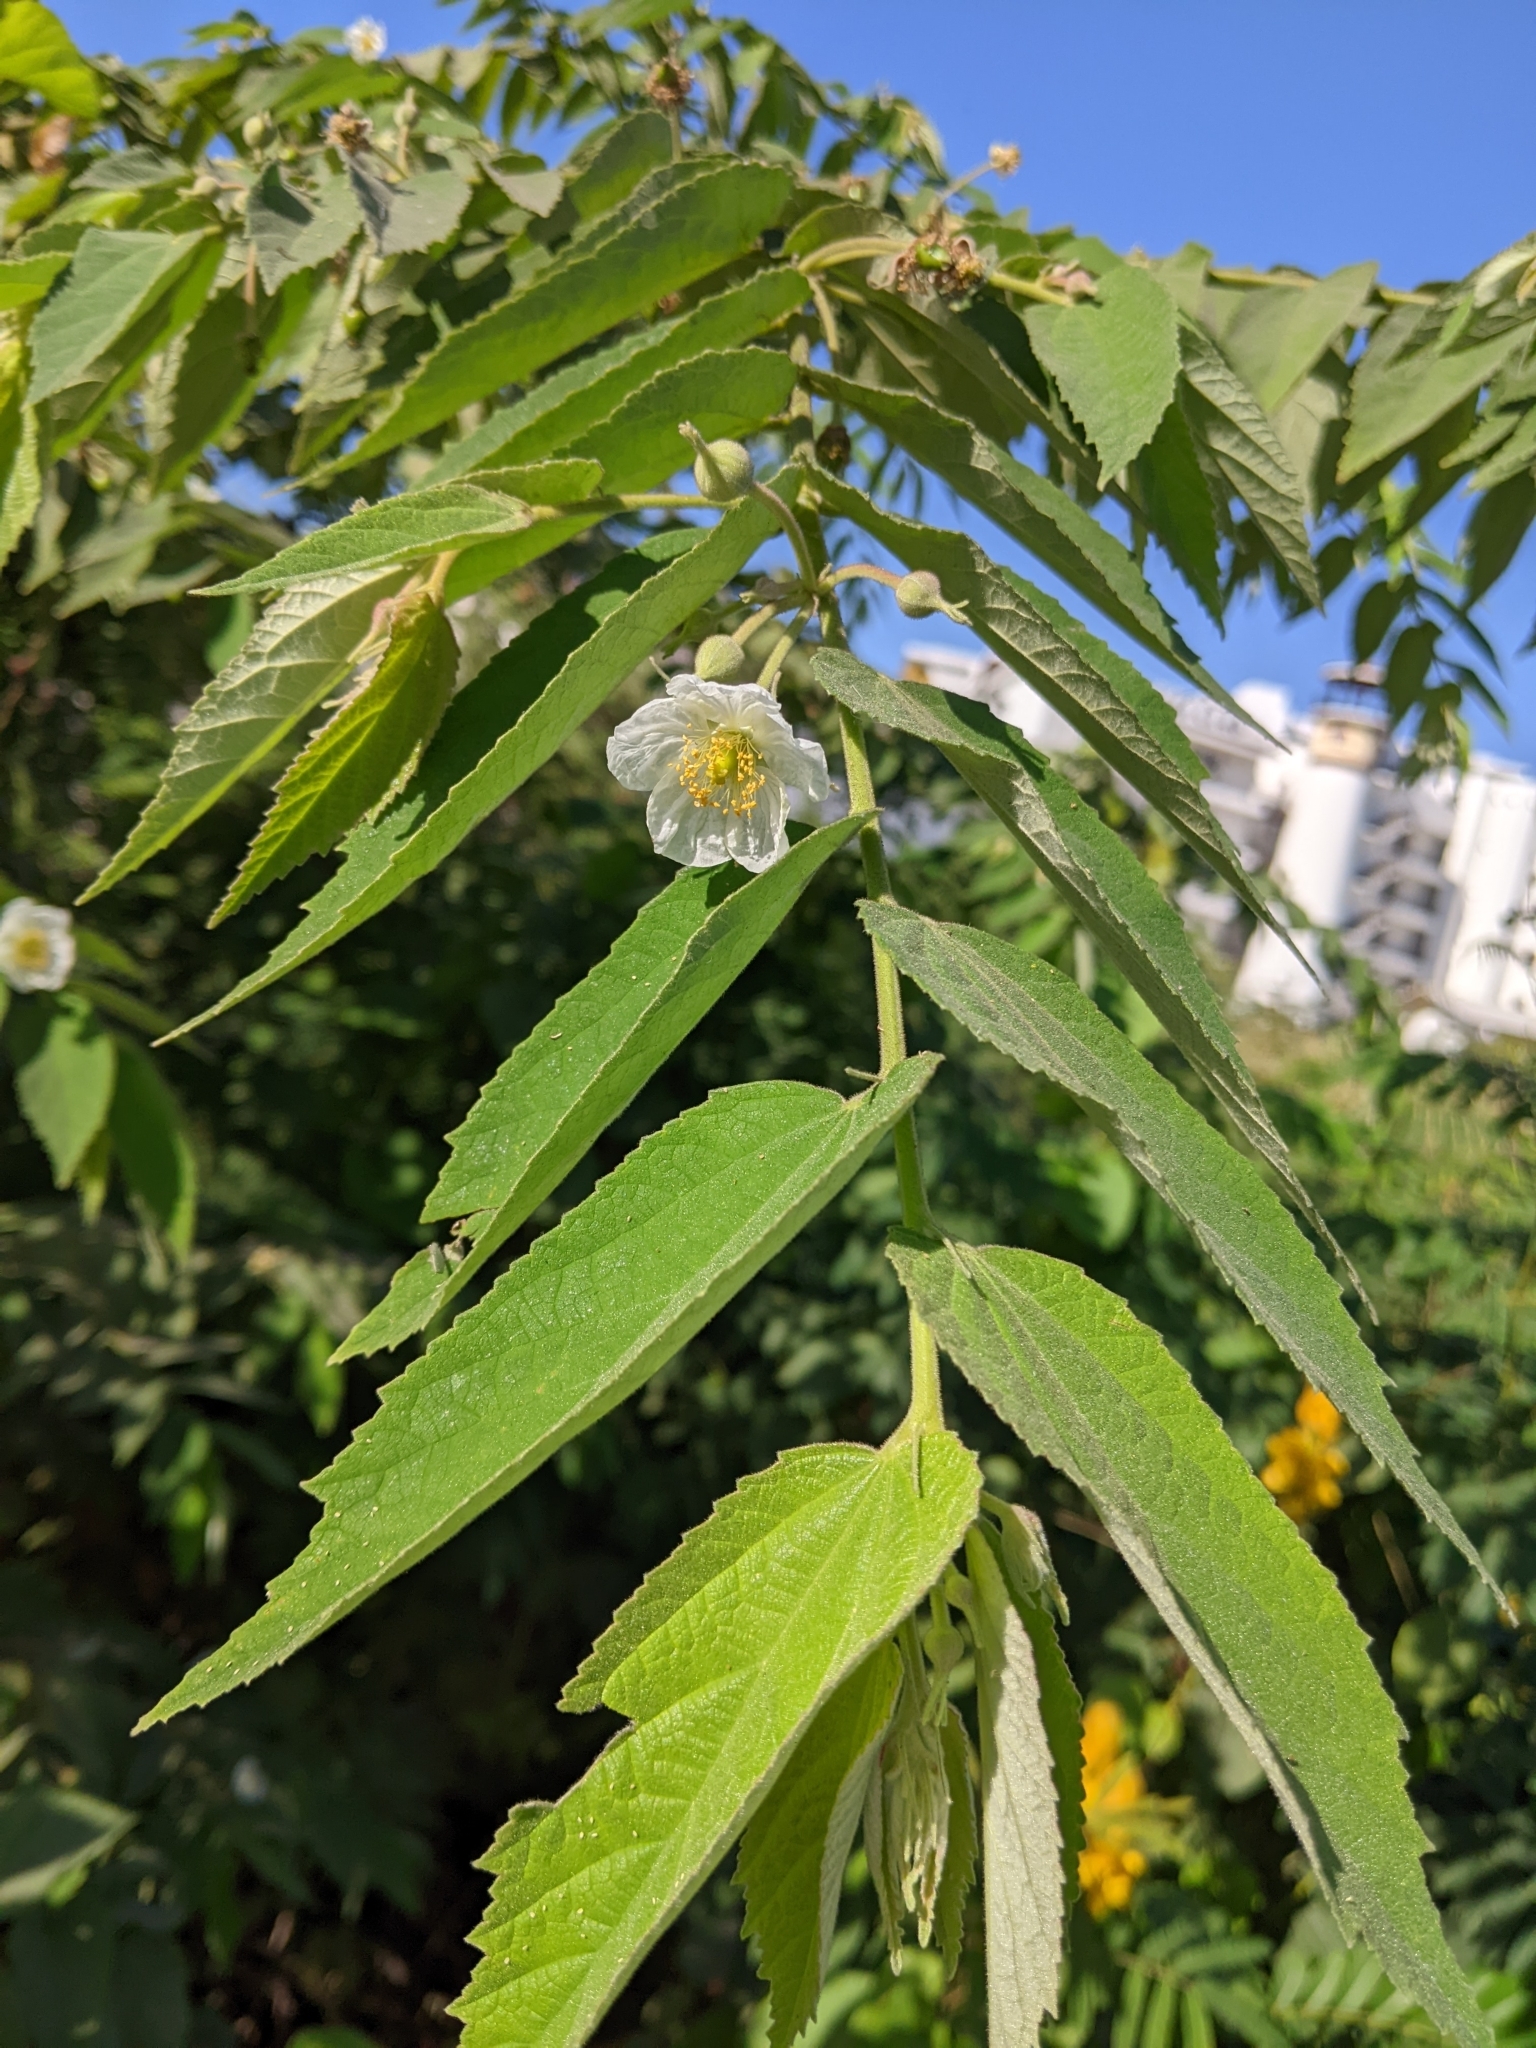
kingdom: Plantae
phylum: Tracheophyta
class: Magnoliopsida
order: Malvales
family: Muntingiaceae
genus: Muntingia
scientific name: Muntingia calabura
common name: Strawberrytree
